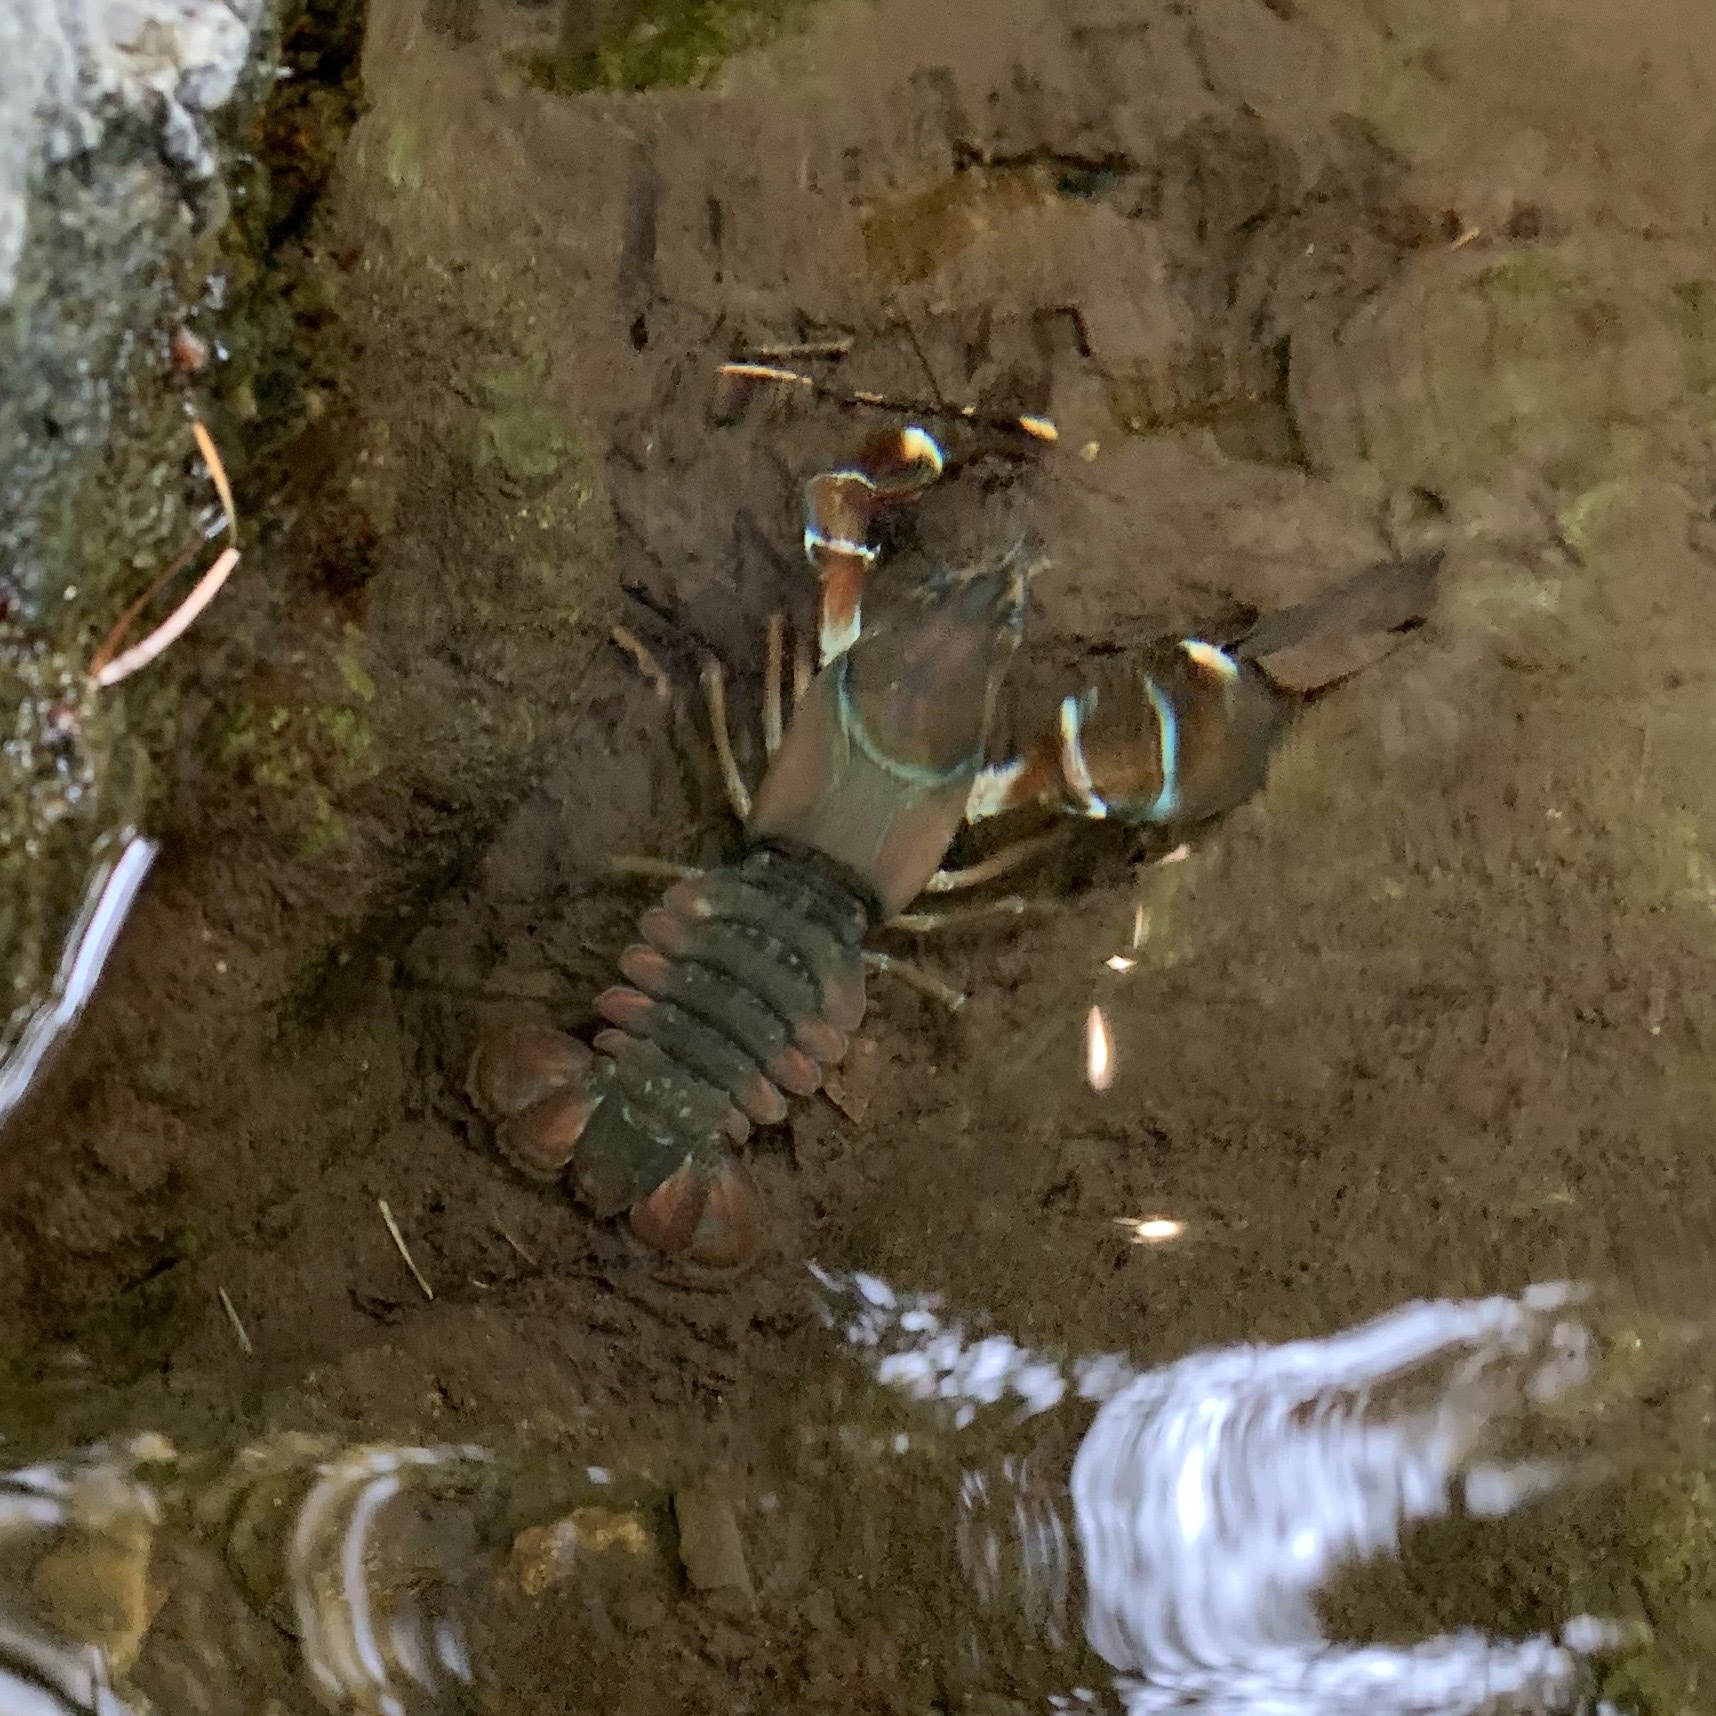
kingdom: Animalia
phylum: Arthropoda
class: Malacostraca
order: Decapoda
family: Astacidae
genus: Pacifastacus
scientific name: Pacifastacus leniusculus
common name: Signal crayfish
